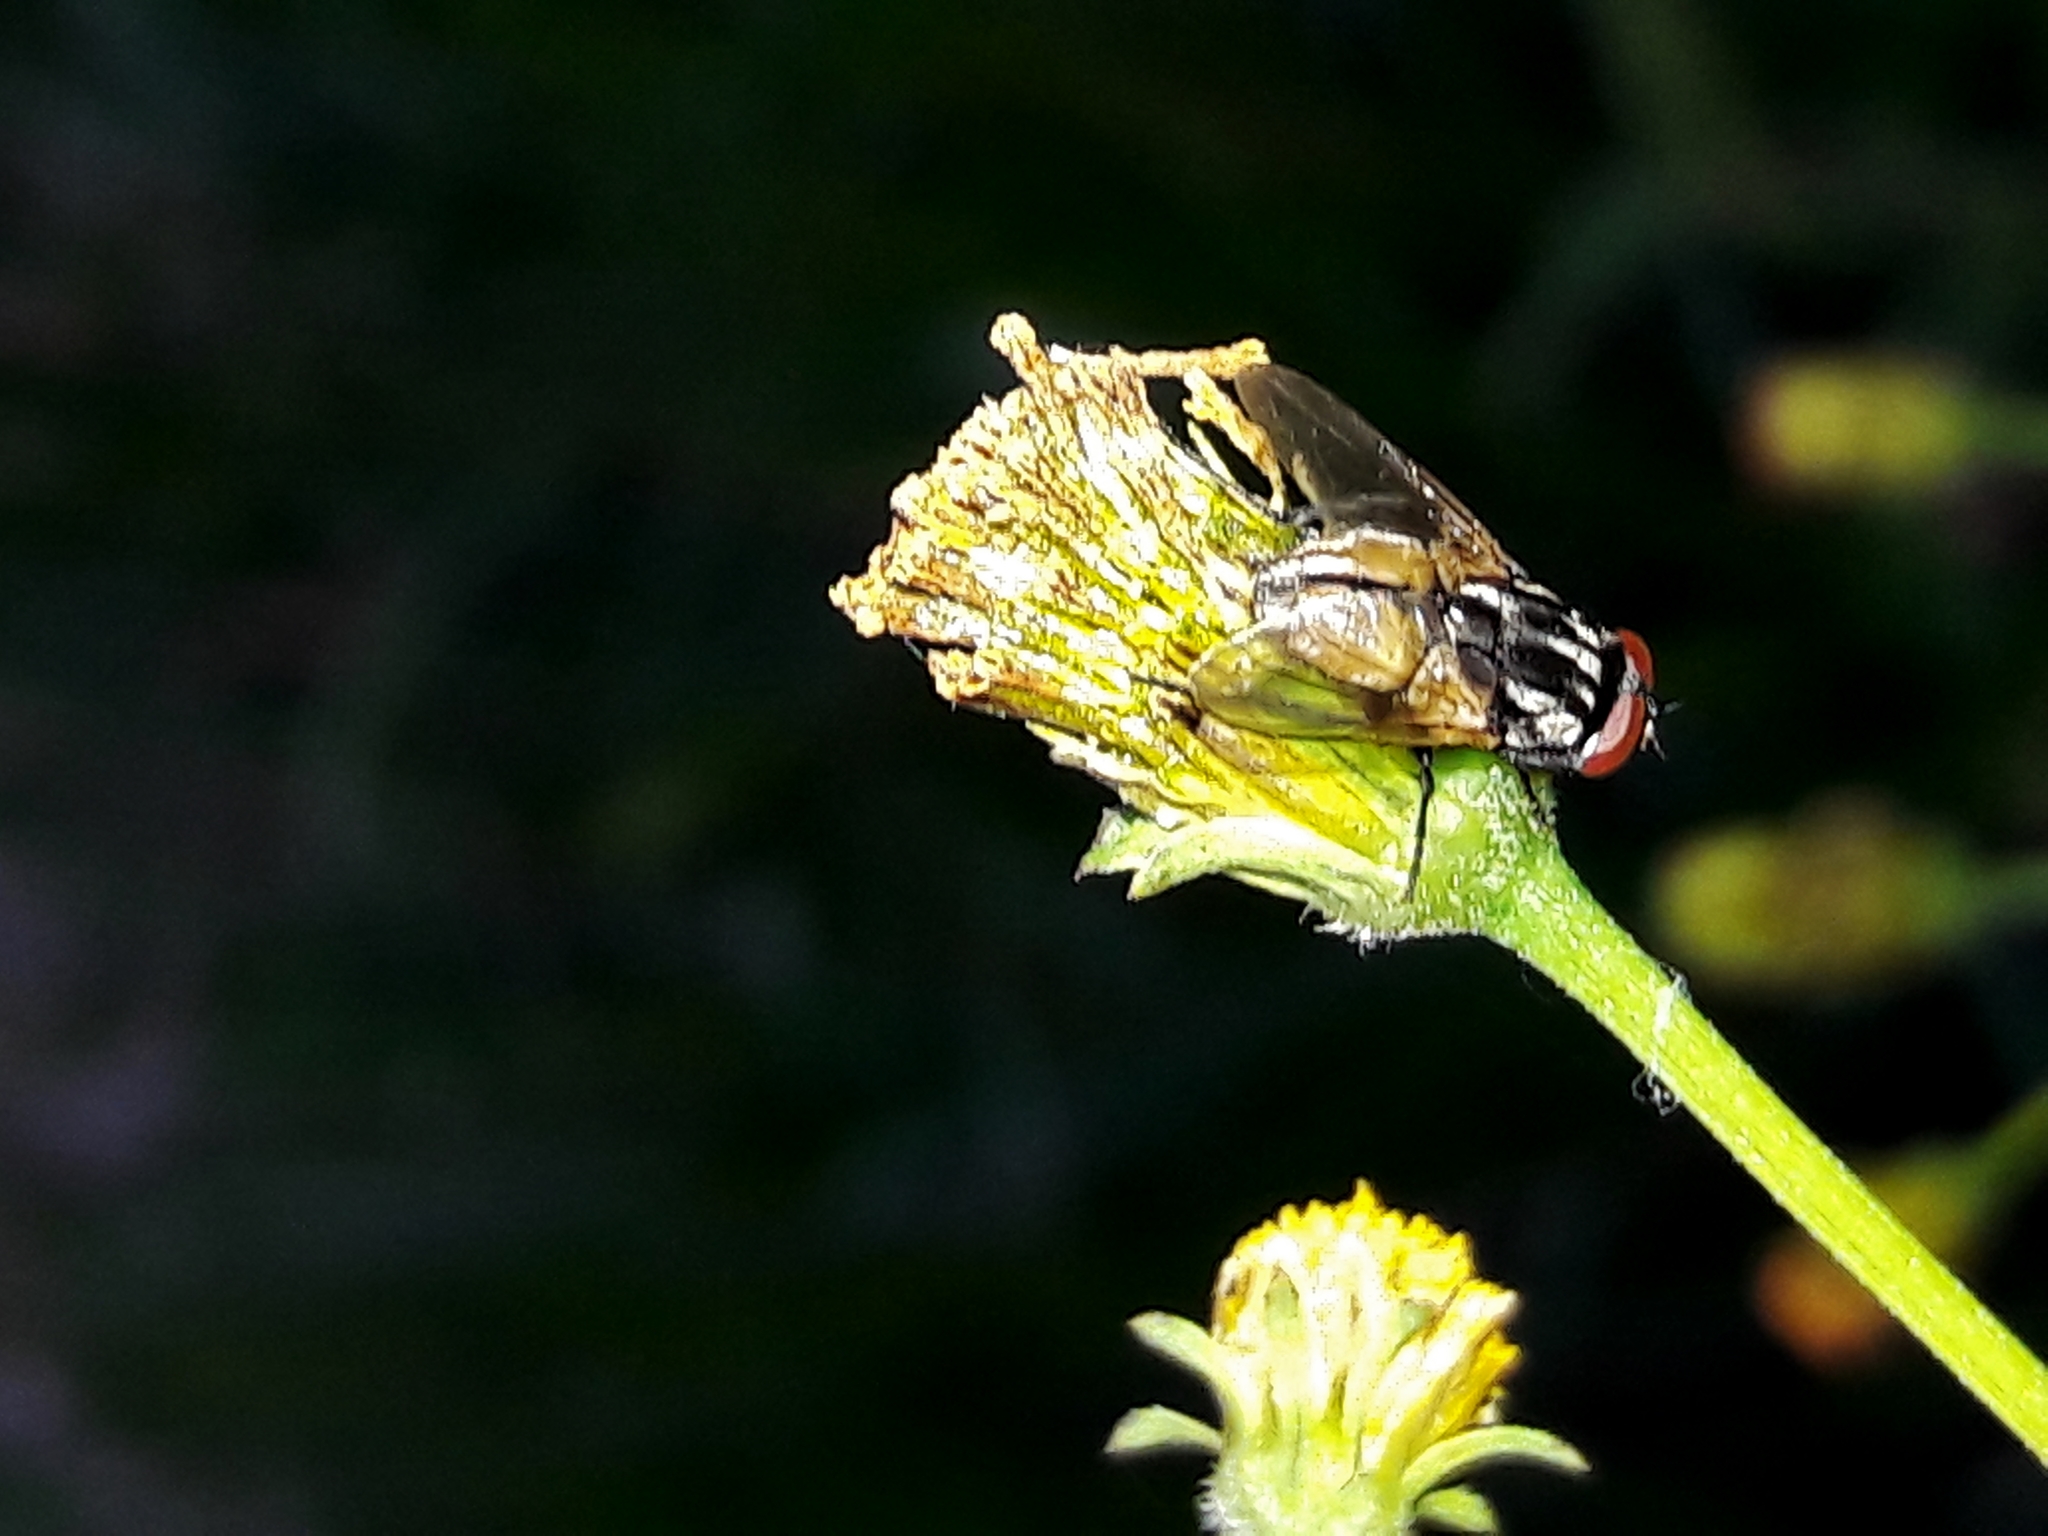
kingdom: Animalia
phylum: Arthropoda
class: Insecta
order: Diptera
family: Muscidae
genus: Musca
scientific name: Musca domestica
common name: House fly
